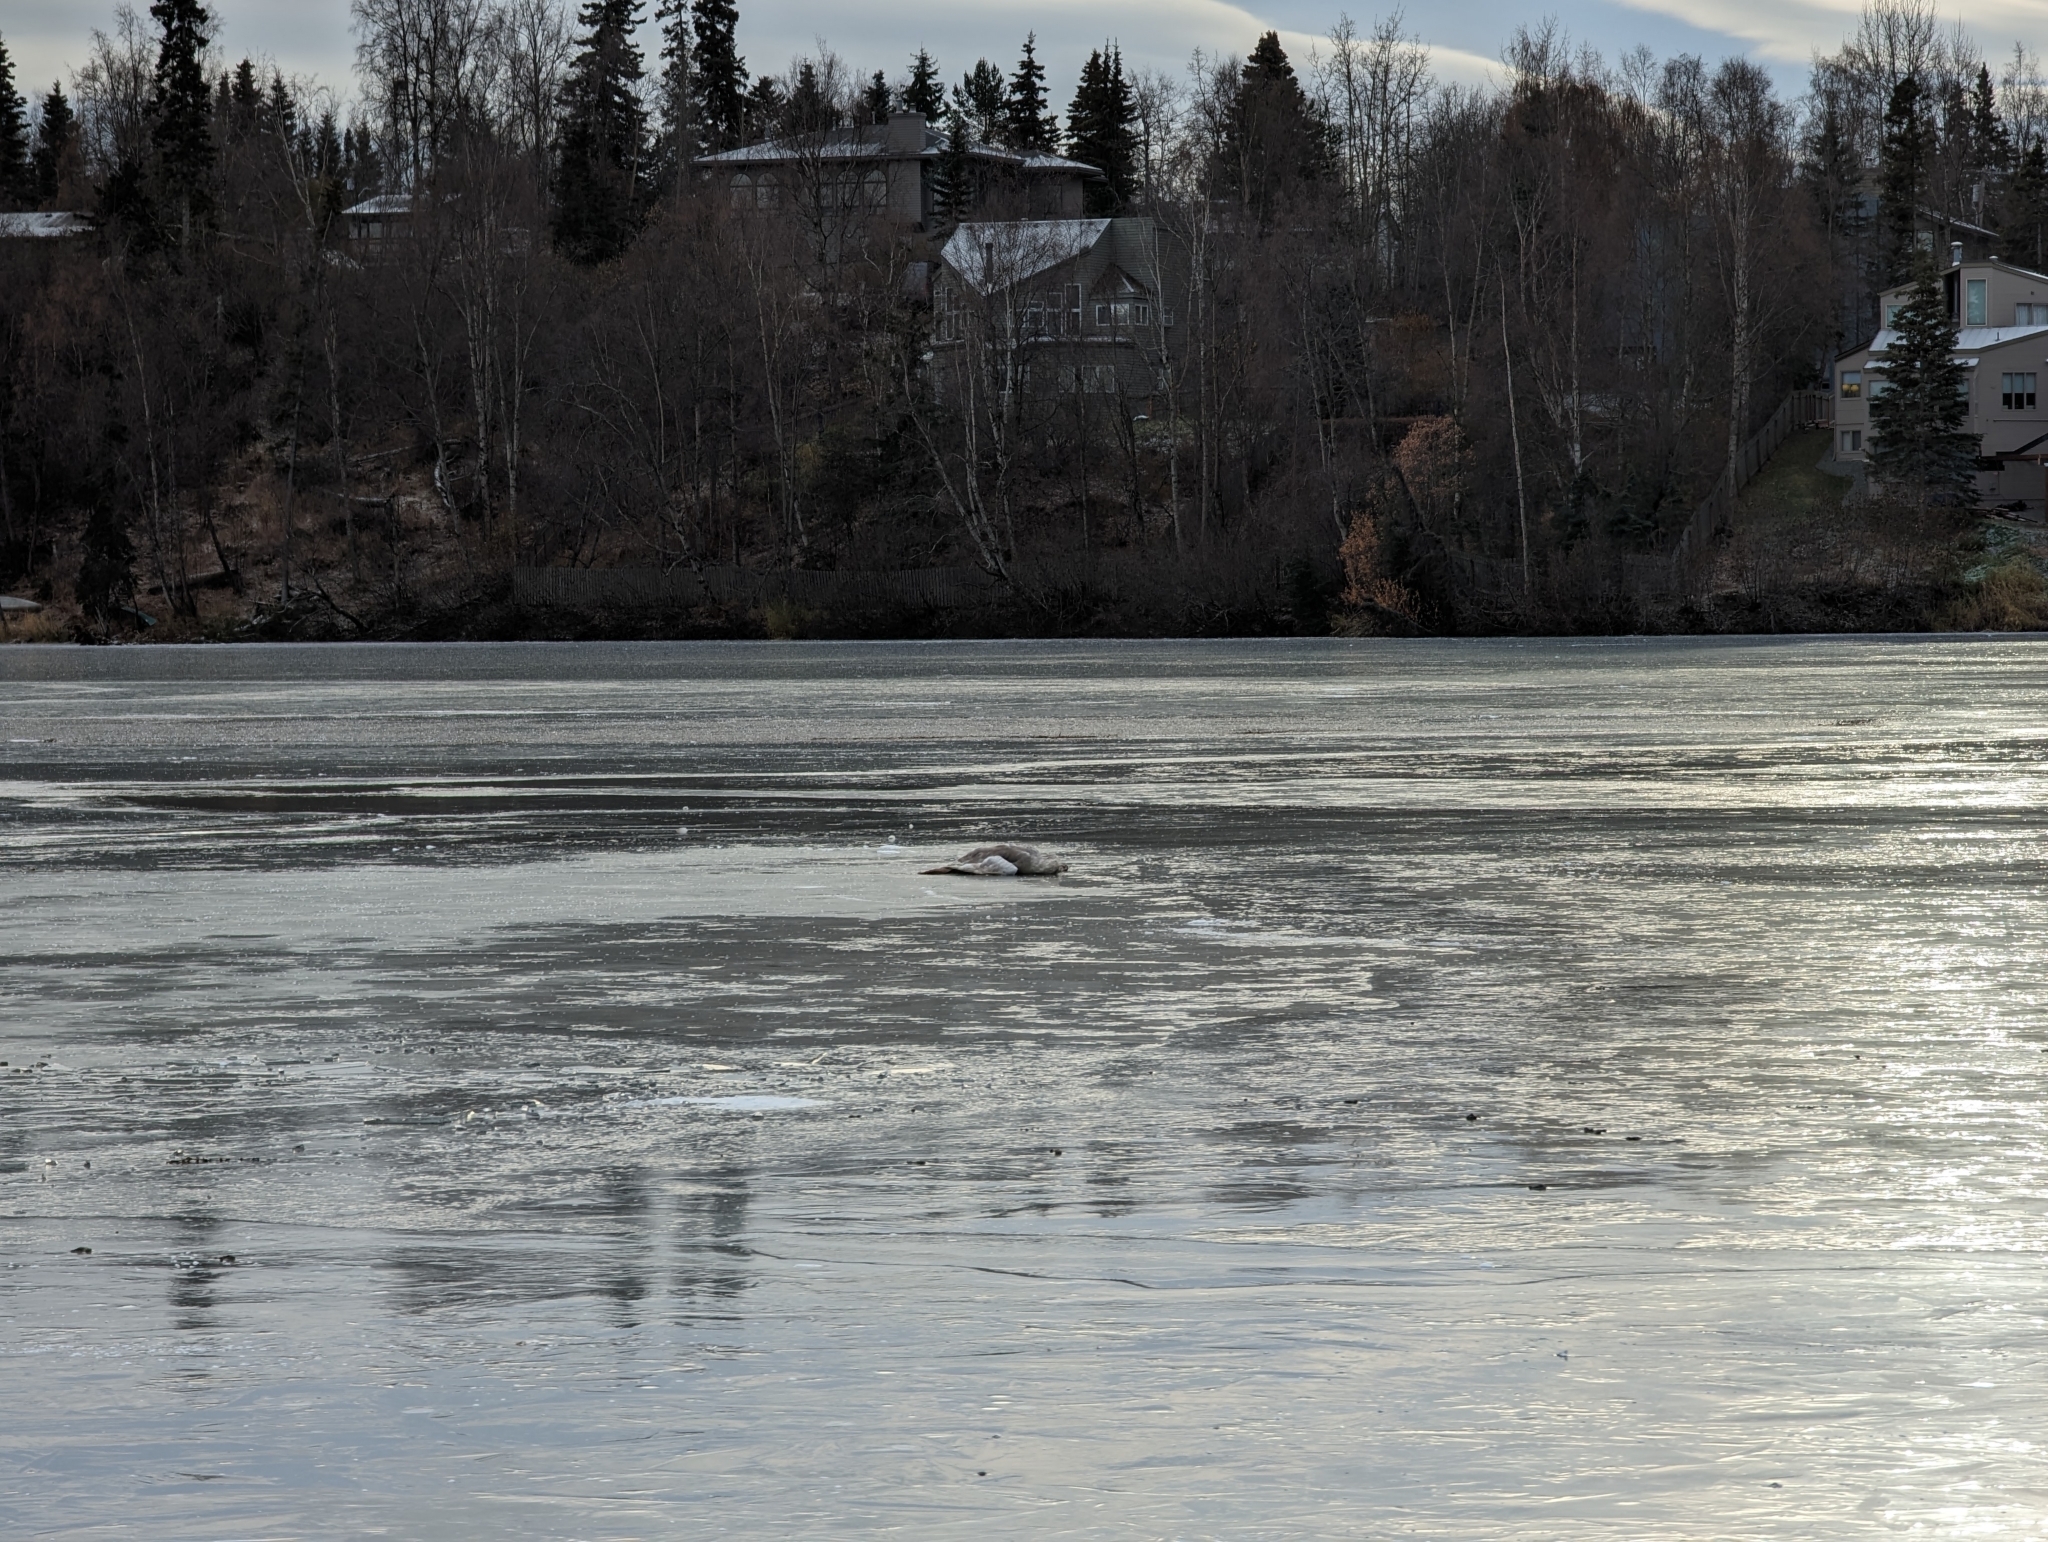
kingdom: Animalia
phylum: Chordata
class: Aves
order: Anseriformes
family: Anatidae
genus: Cygnus
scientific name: Cygnus buccinator
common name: Trumpeter swan
